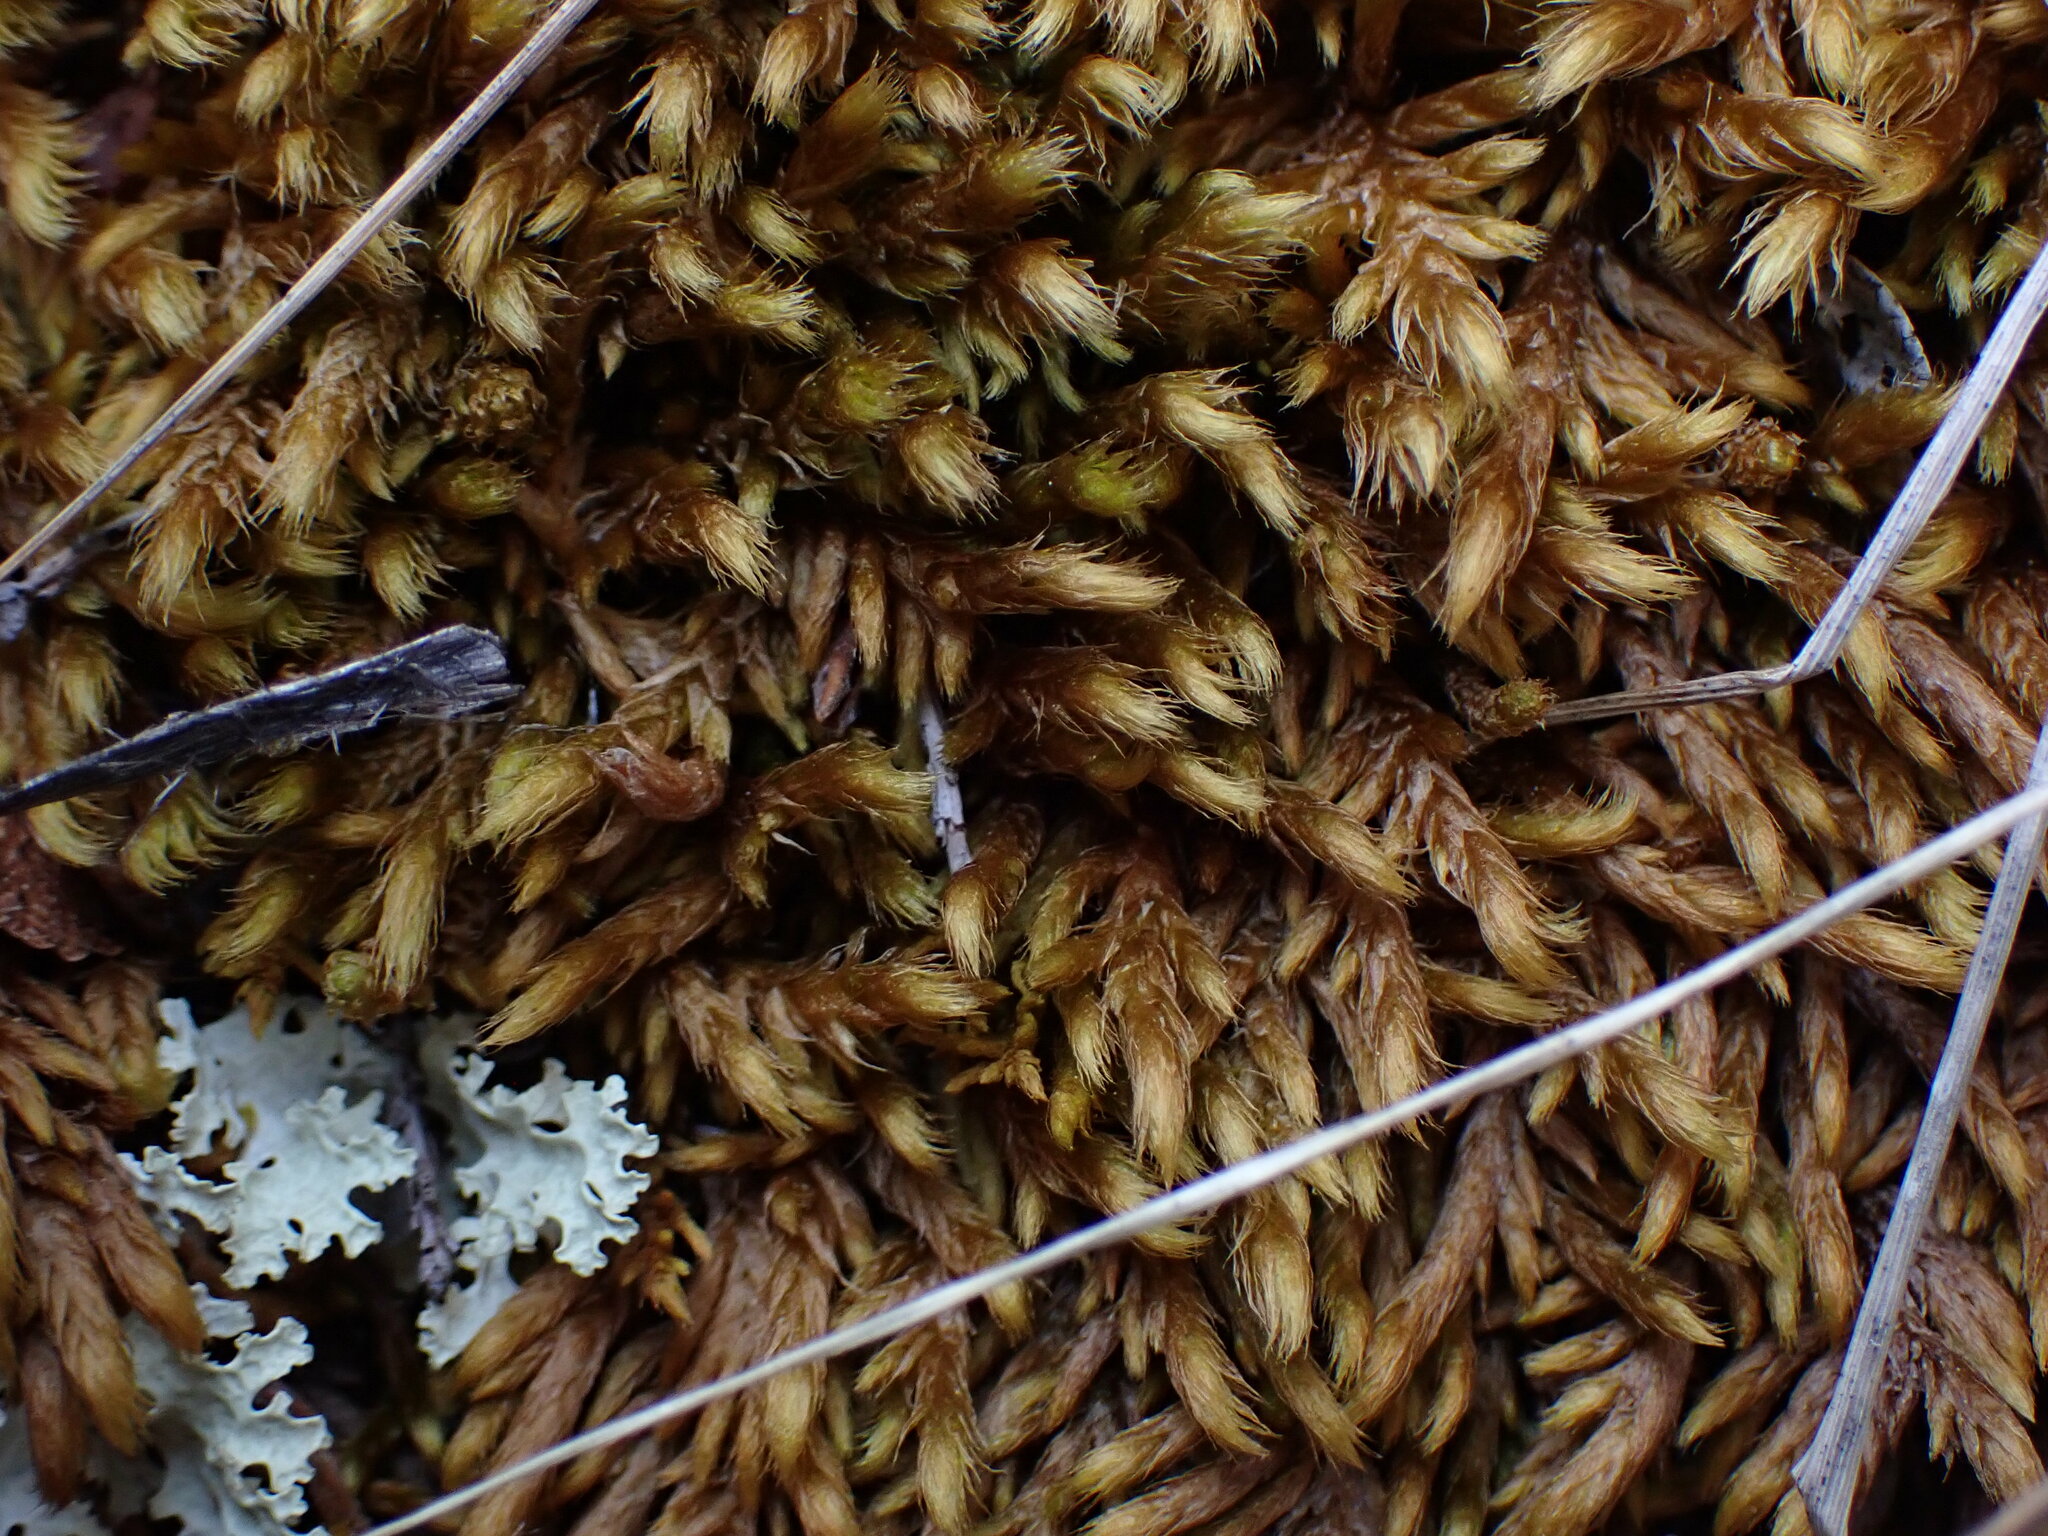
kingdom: Plantae
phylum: Bryophyta
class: Bryopsida
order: Hypnales
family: Rhytidiaceae
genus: Rhytidium
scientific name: Rhytidium rugosum
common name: Wrinkle-leaved moss
